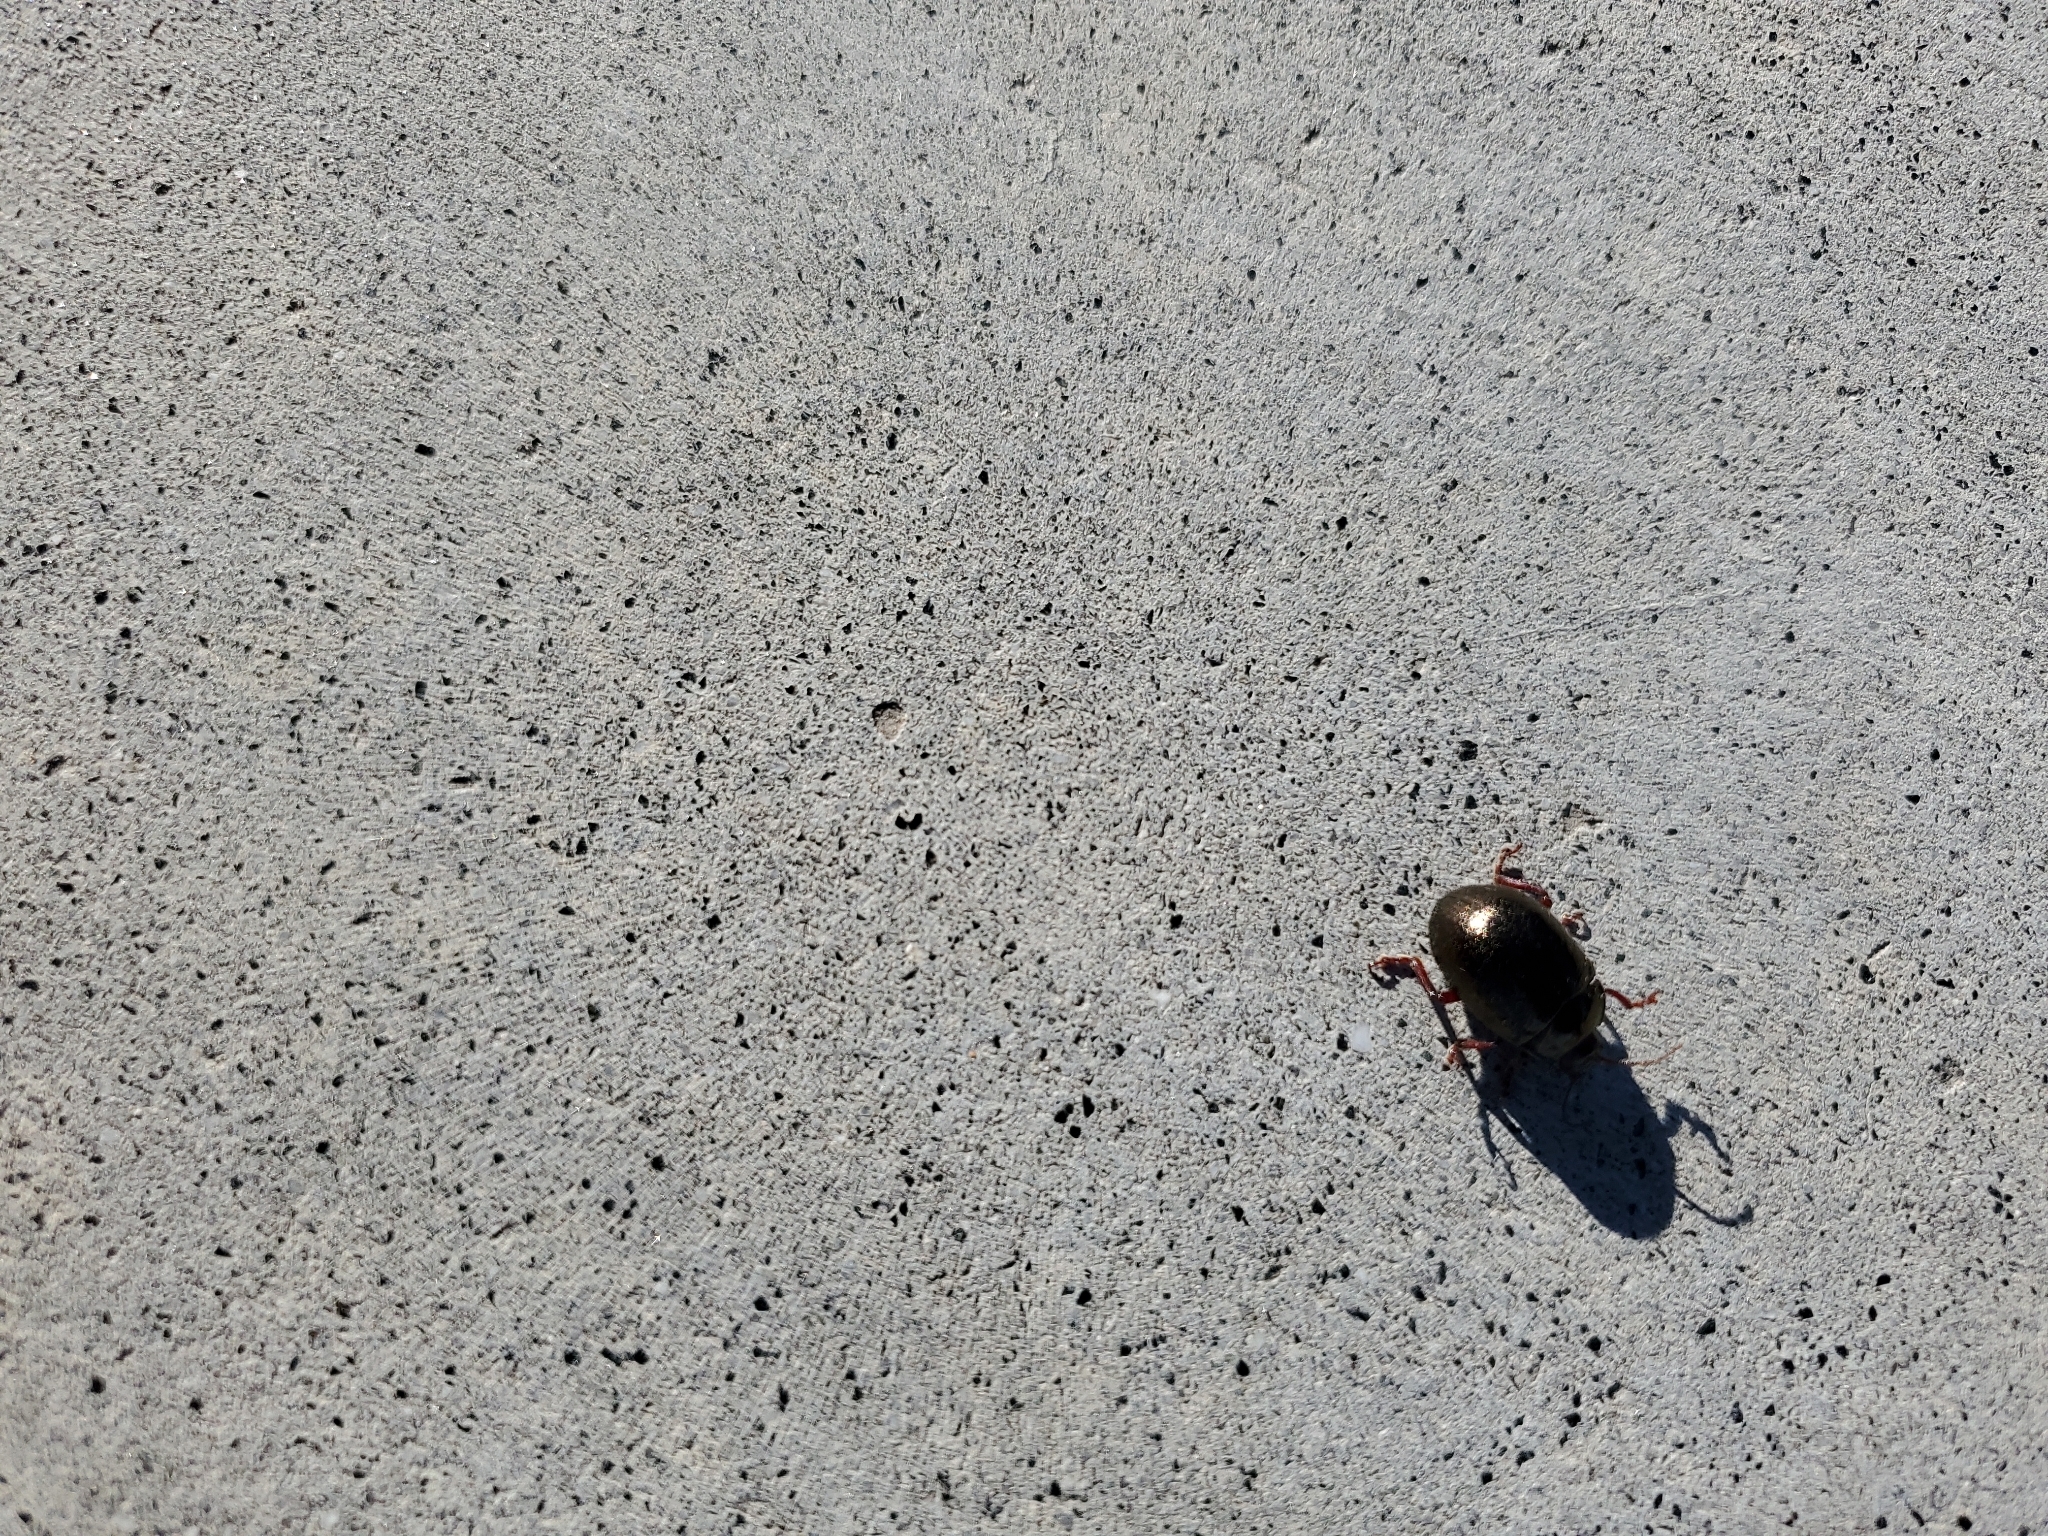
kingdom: Animalia
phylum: Arthropoda
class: Insecta
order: Coleoptera
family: Chrysomelidae
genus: Chrysolina
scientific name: Chrysolina bankii
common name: Leaf beetle
